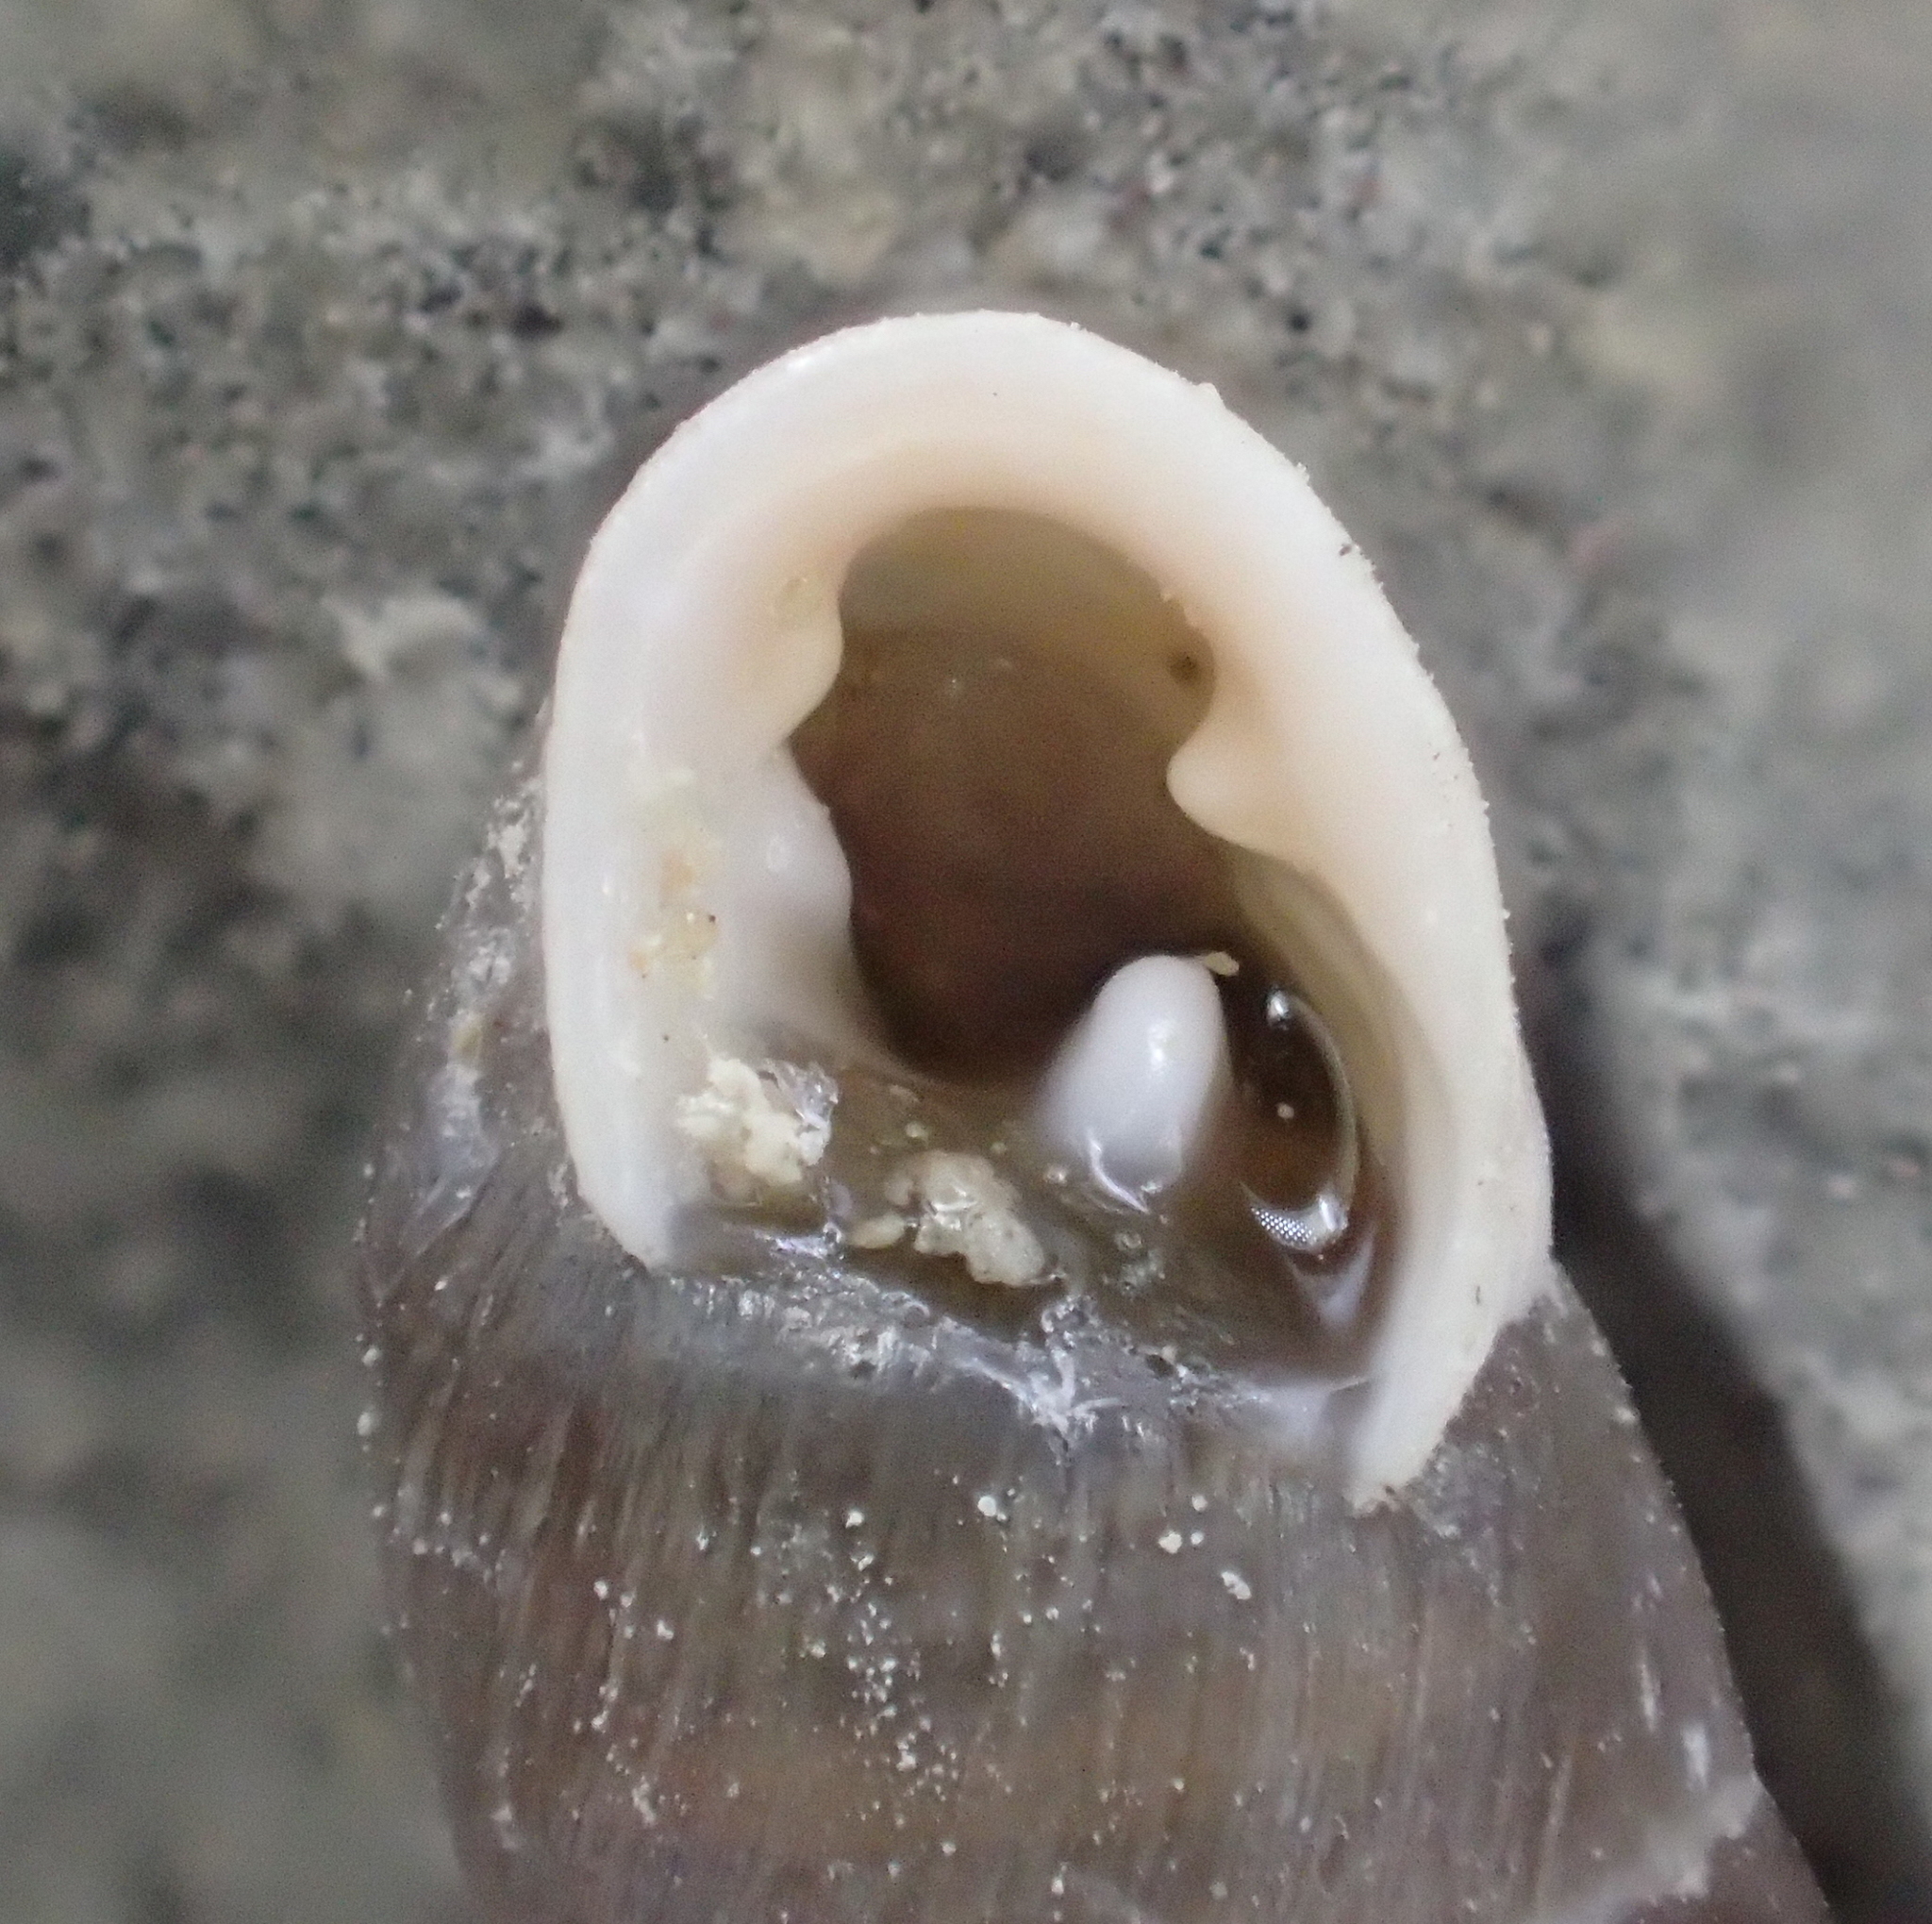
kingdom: Animalia
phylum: Mollusca
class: Gastropoda
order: Stylommatophora
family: Enidae
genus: Jaminia
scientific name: Jaminia quadridens
